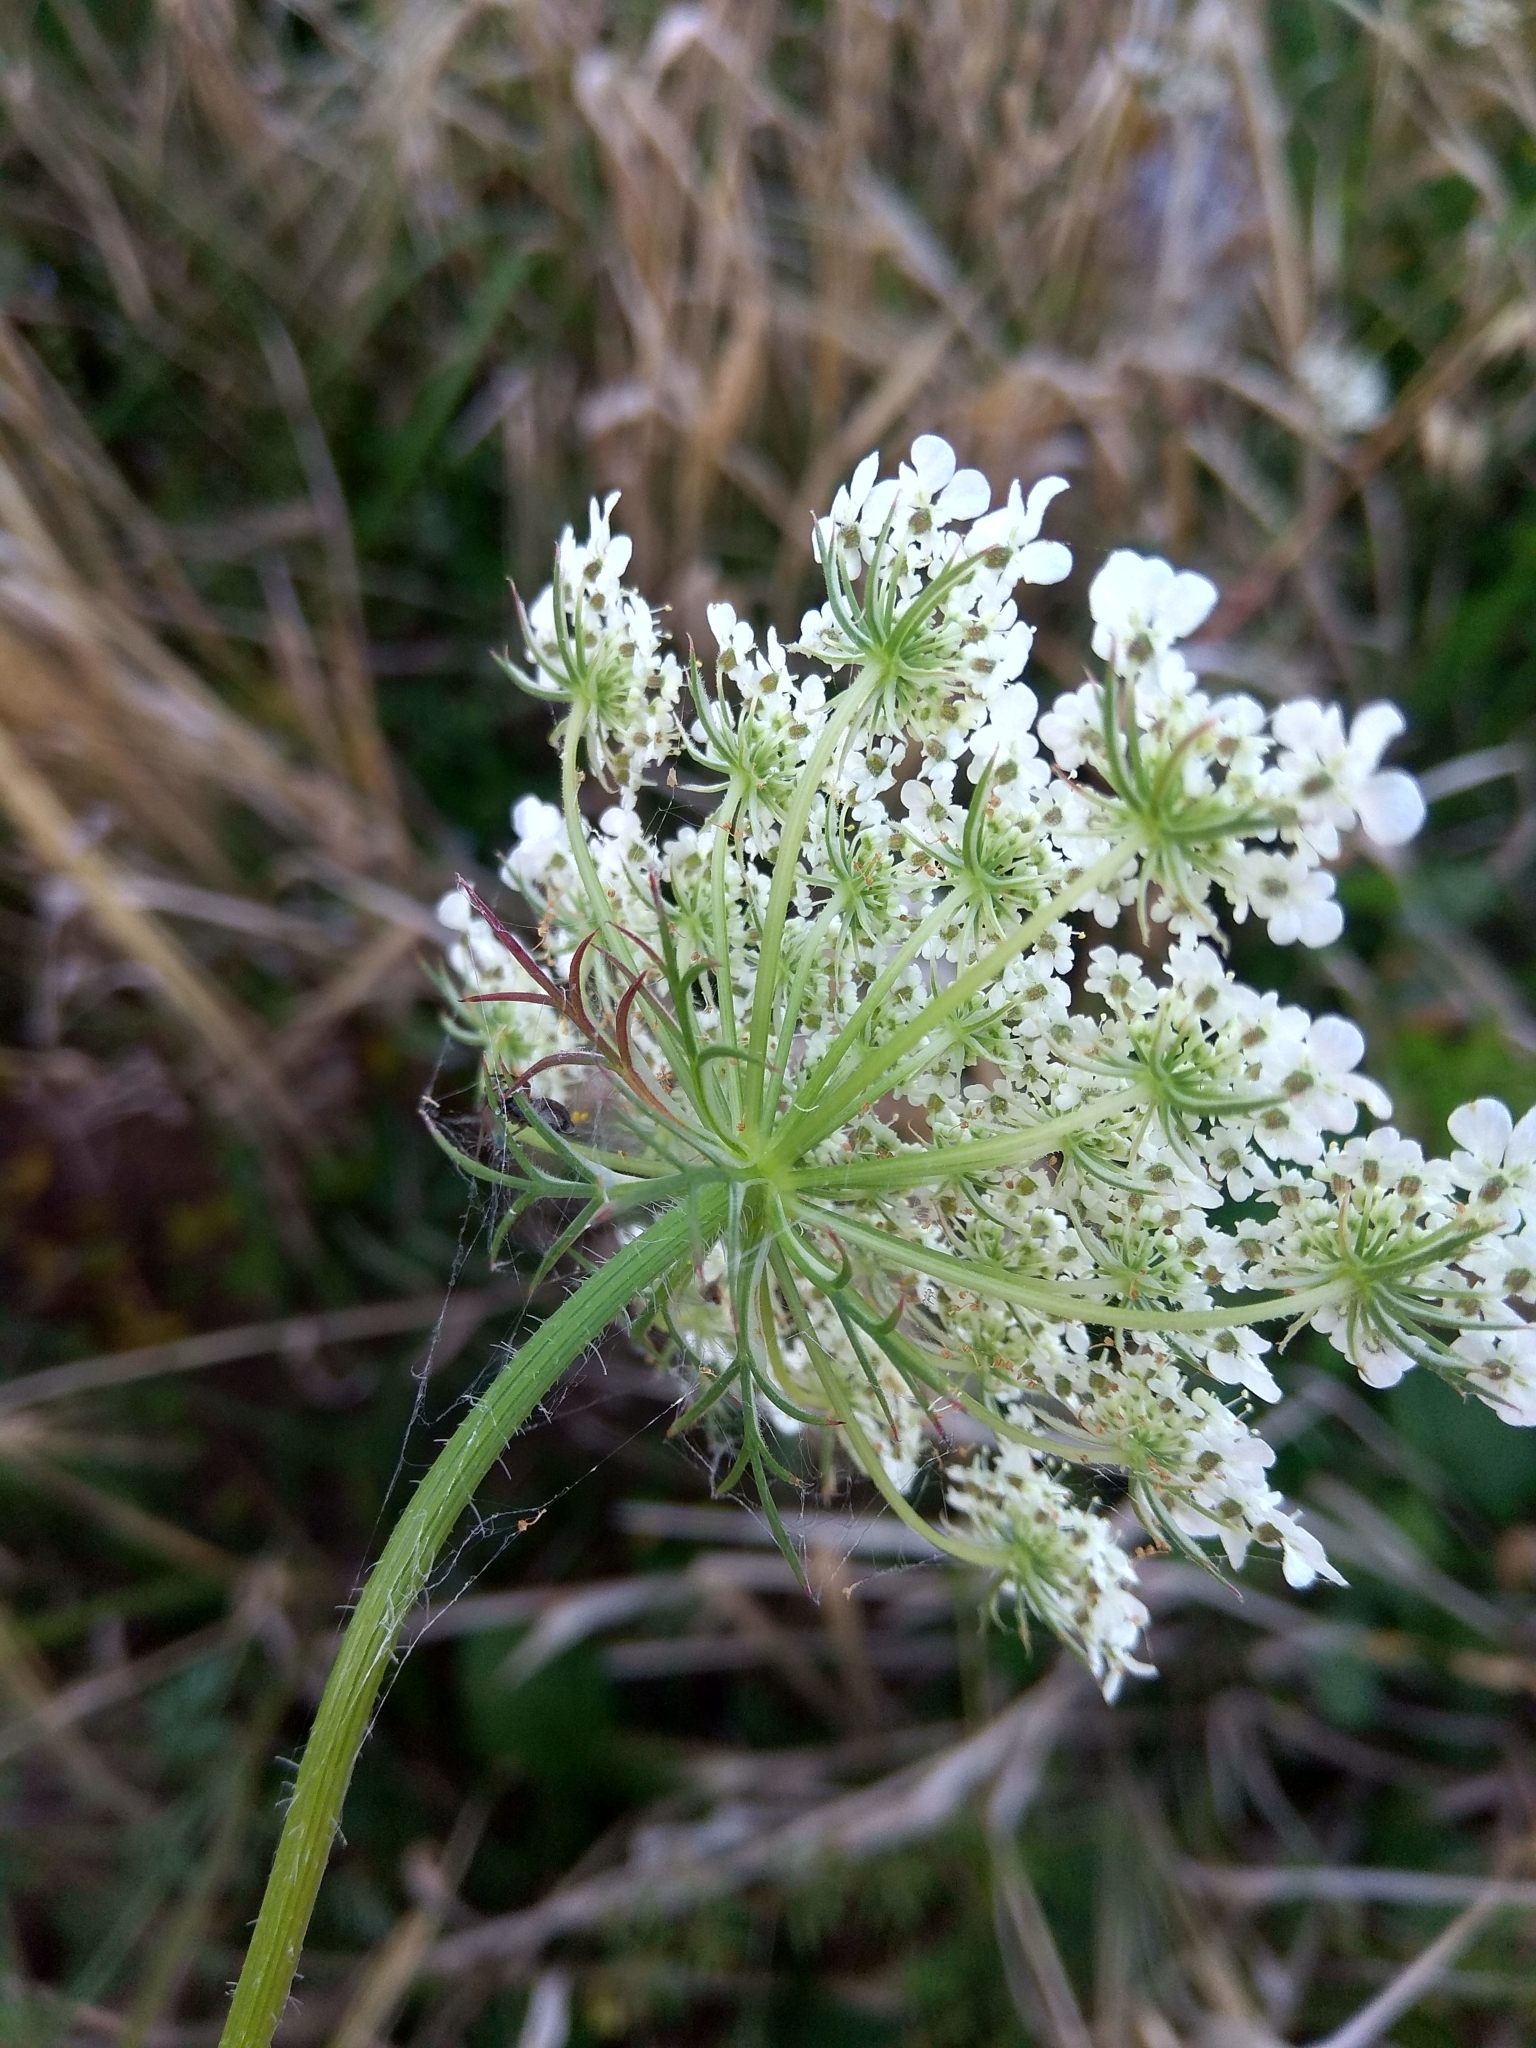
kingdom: Plantae
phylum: Tracheophyta
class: Magnoliopsida
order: Apiales
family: Apiaceae
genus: Daucus
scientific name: Daucus carota
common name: Wild carrot
